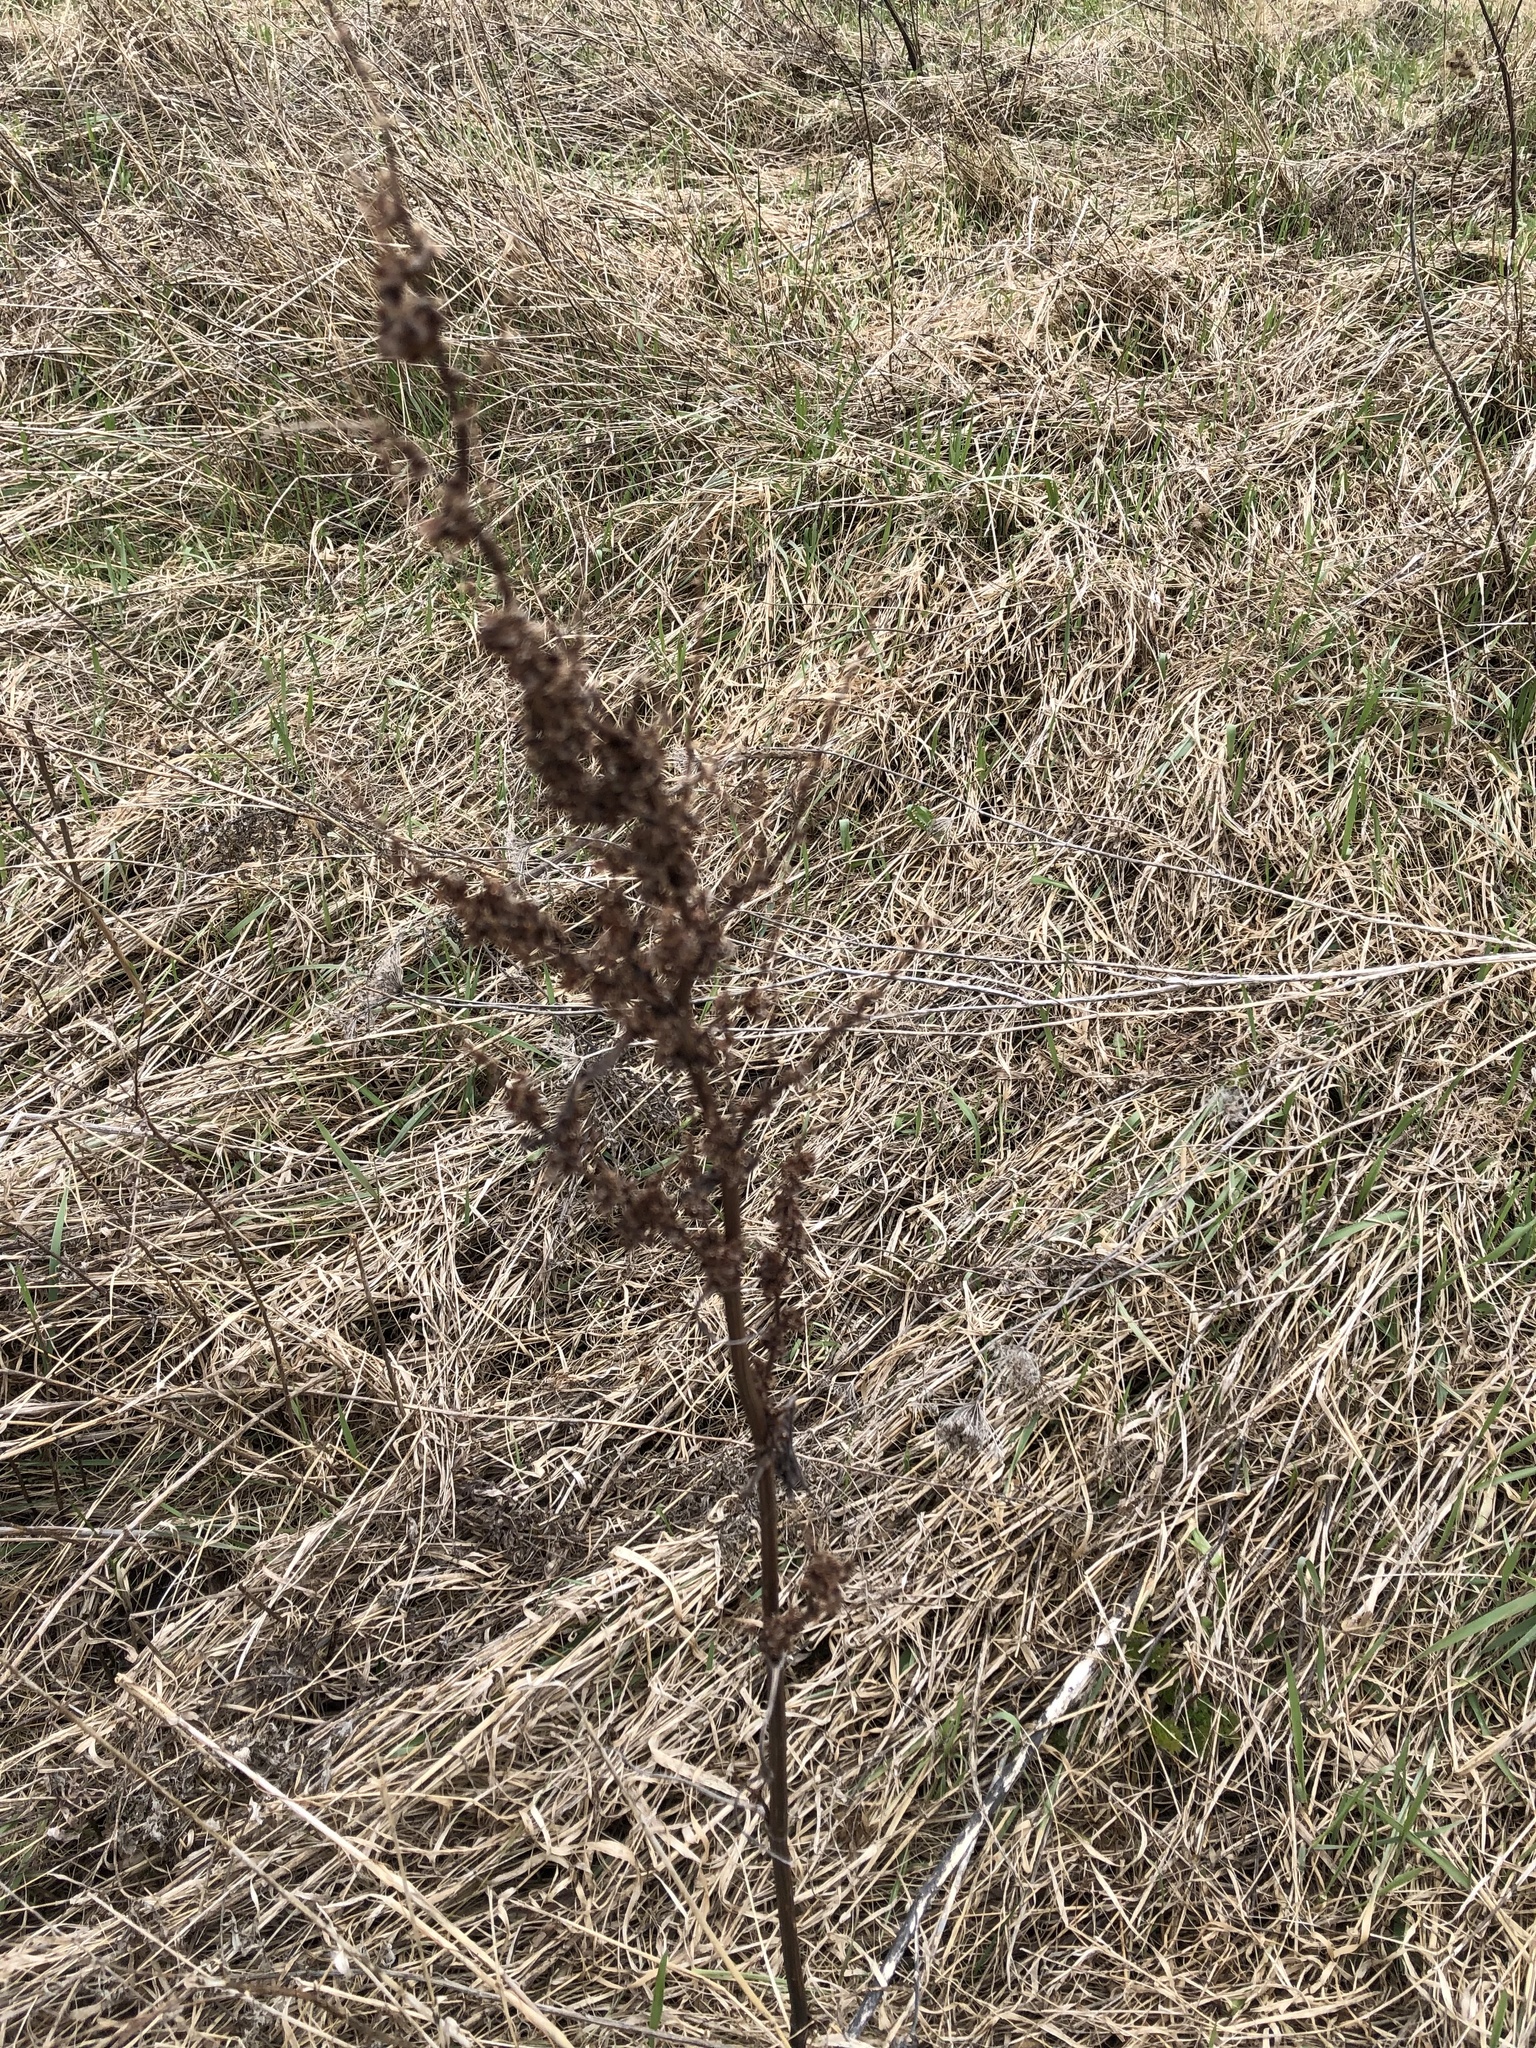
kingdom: Plantae
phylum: Tracheophyta
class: Magnoliopsida
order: Caryophyllales
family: Polygonaceae
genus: Rumex
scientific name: Rumex crispus
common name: Curled dock
